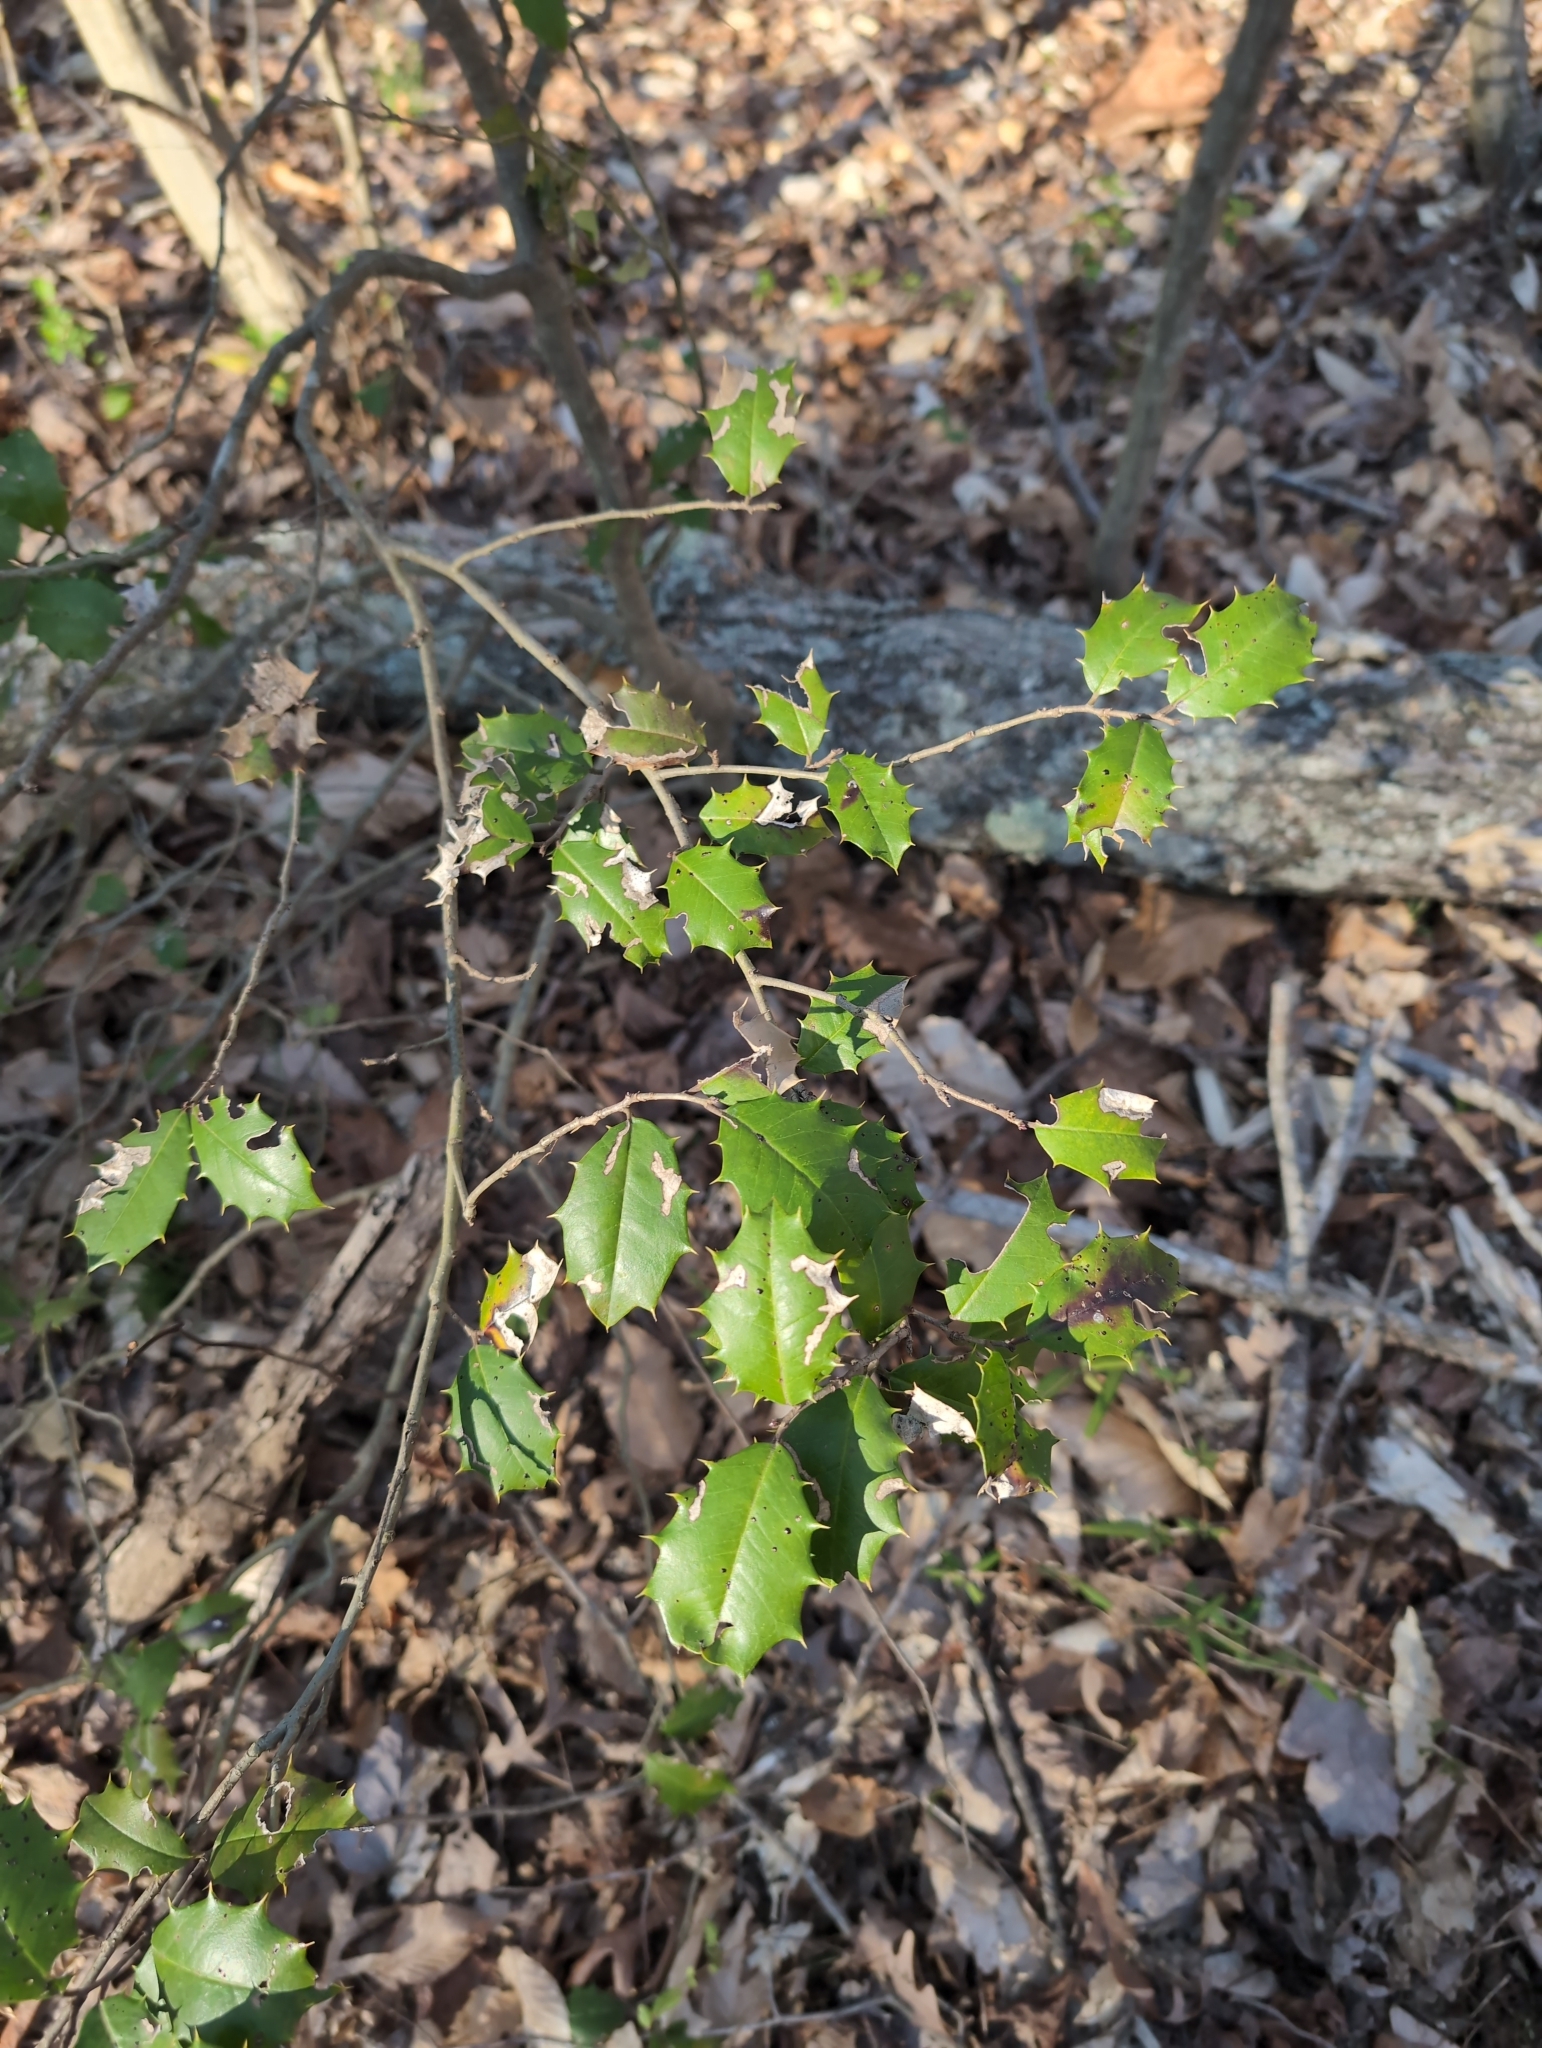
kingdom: Plantae
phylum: Tracheophyta
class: Magnoliopsida
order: Aquifoliales
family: Aquifoliaceae
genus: Ilex
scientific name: Ilex opaca
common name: American holly
